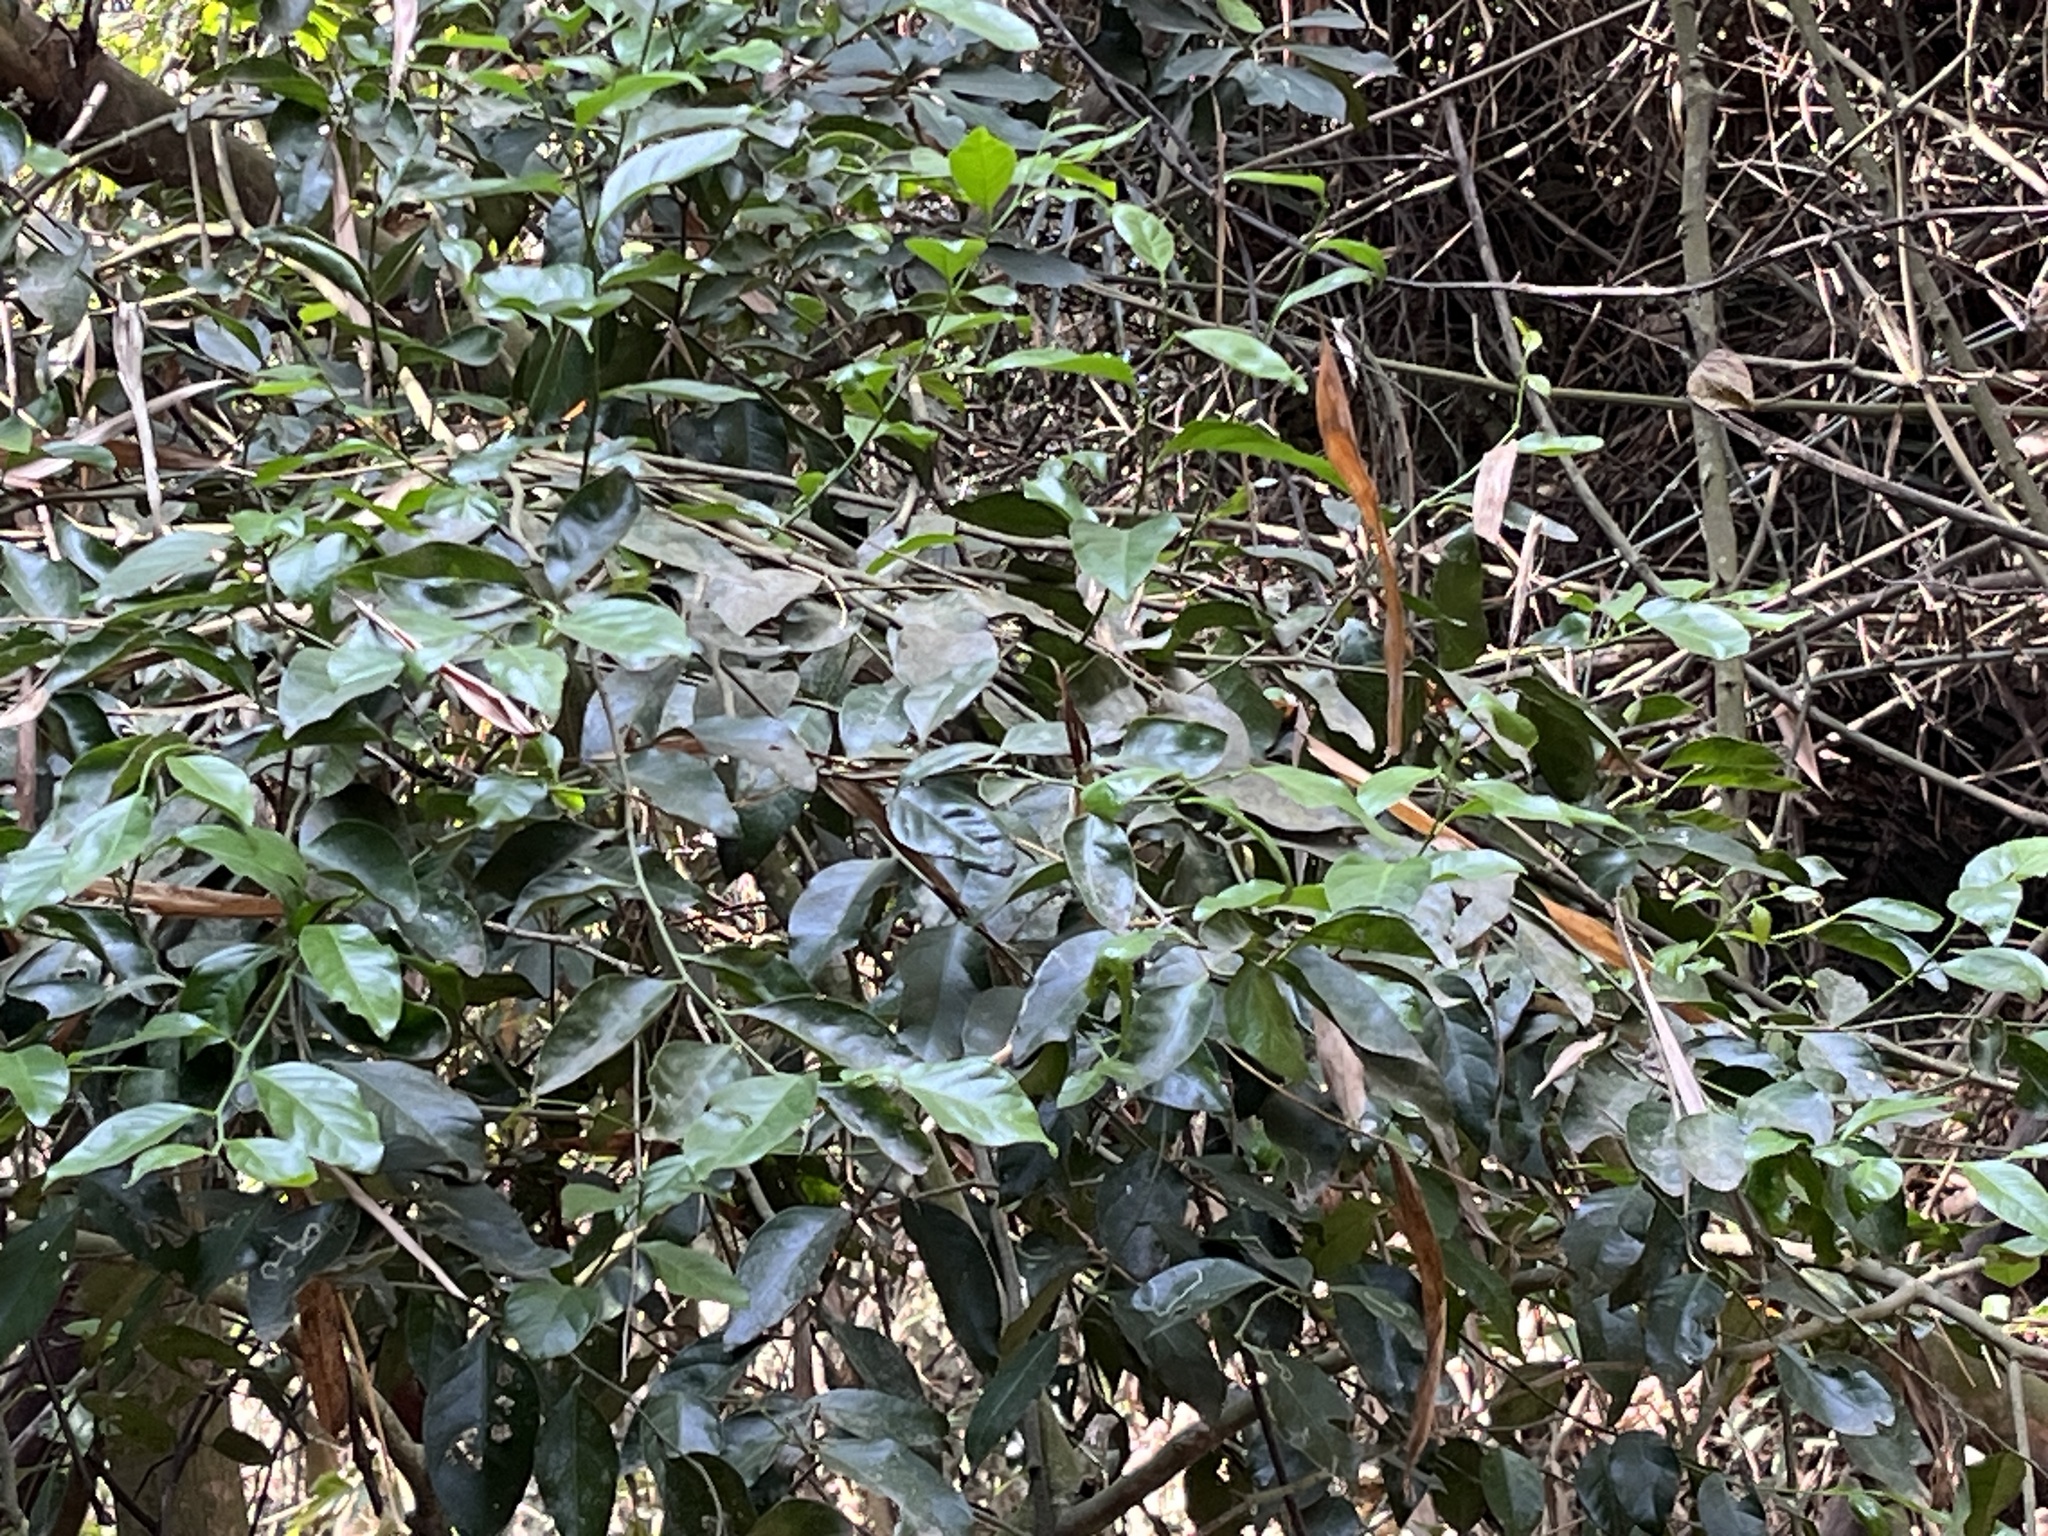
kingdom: Plantae
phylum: Tracheophyta
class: Magnoliopsida
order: Santalales
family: Opiliaceae
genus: Champereia
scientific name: Champereia manillana
